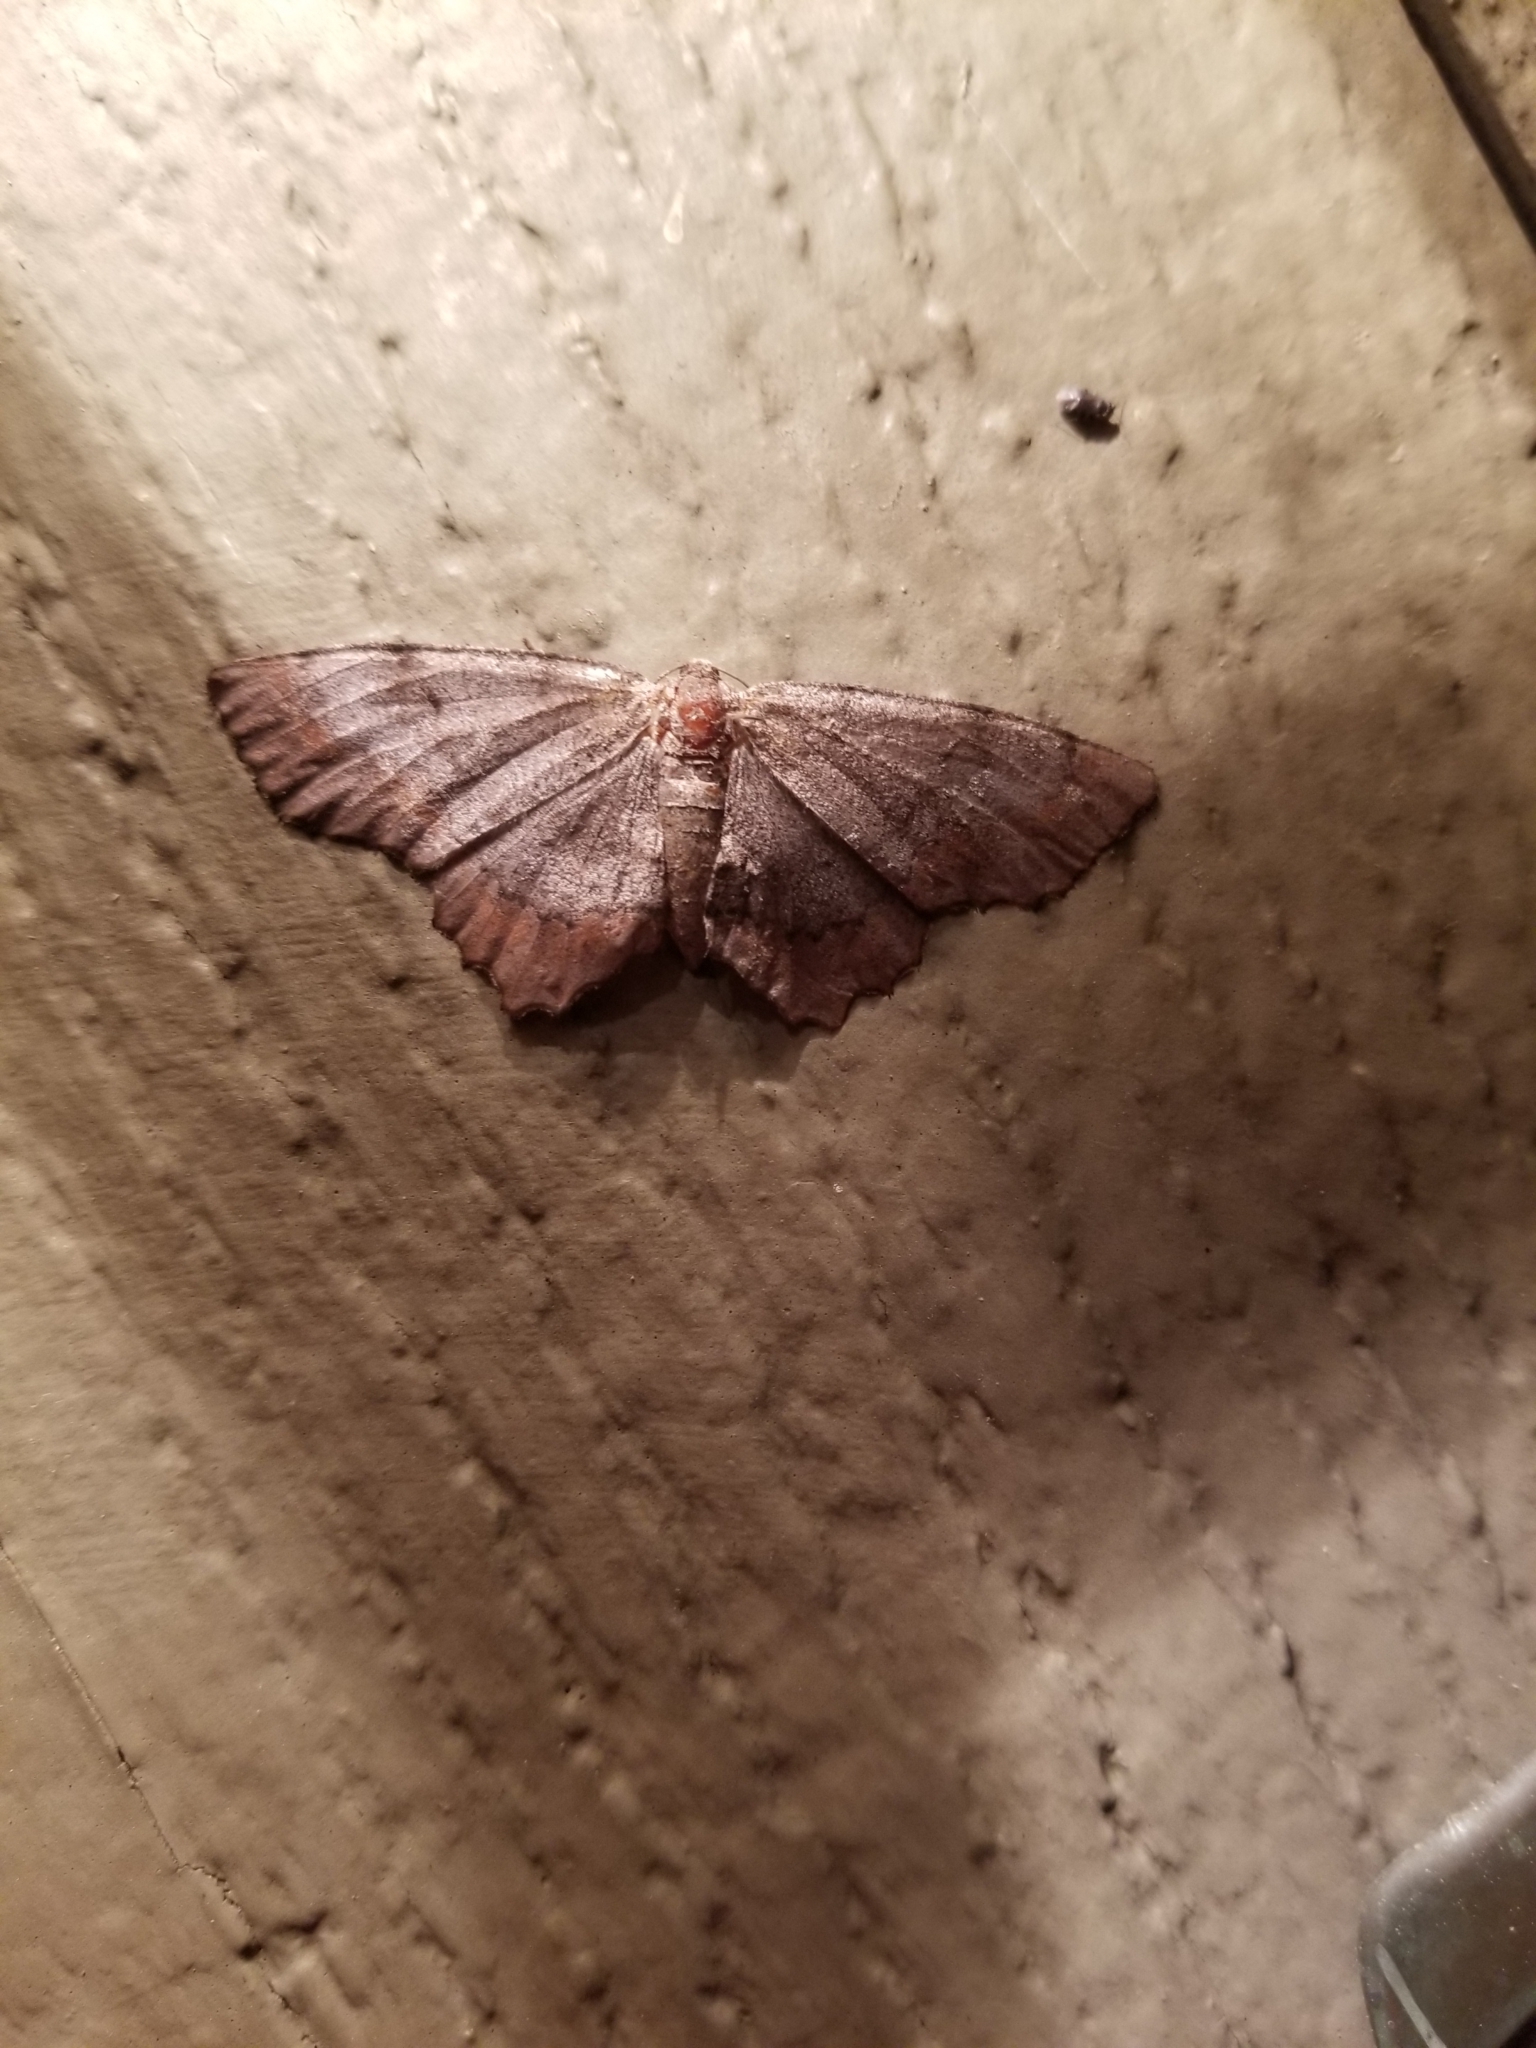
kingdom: Animalia
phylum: Arthropoda
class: Insecta
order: Lepidoptera
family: Geometridae
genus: Hypagyrtis
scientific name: Hypagyrtis
